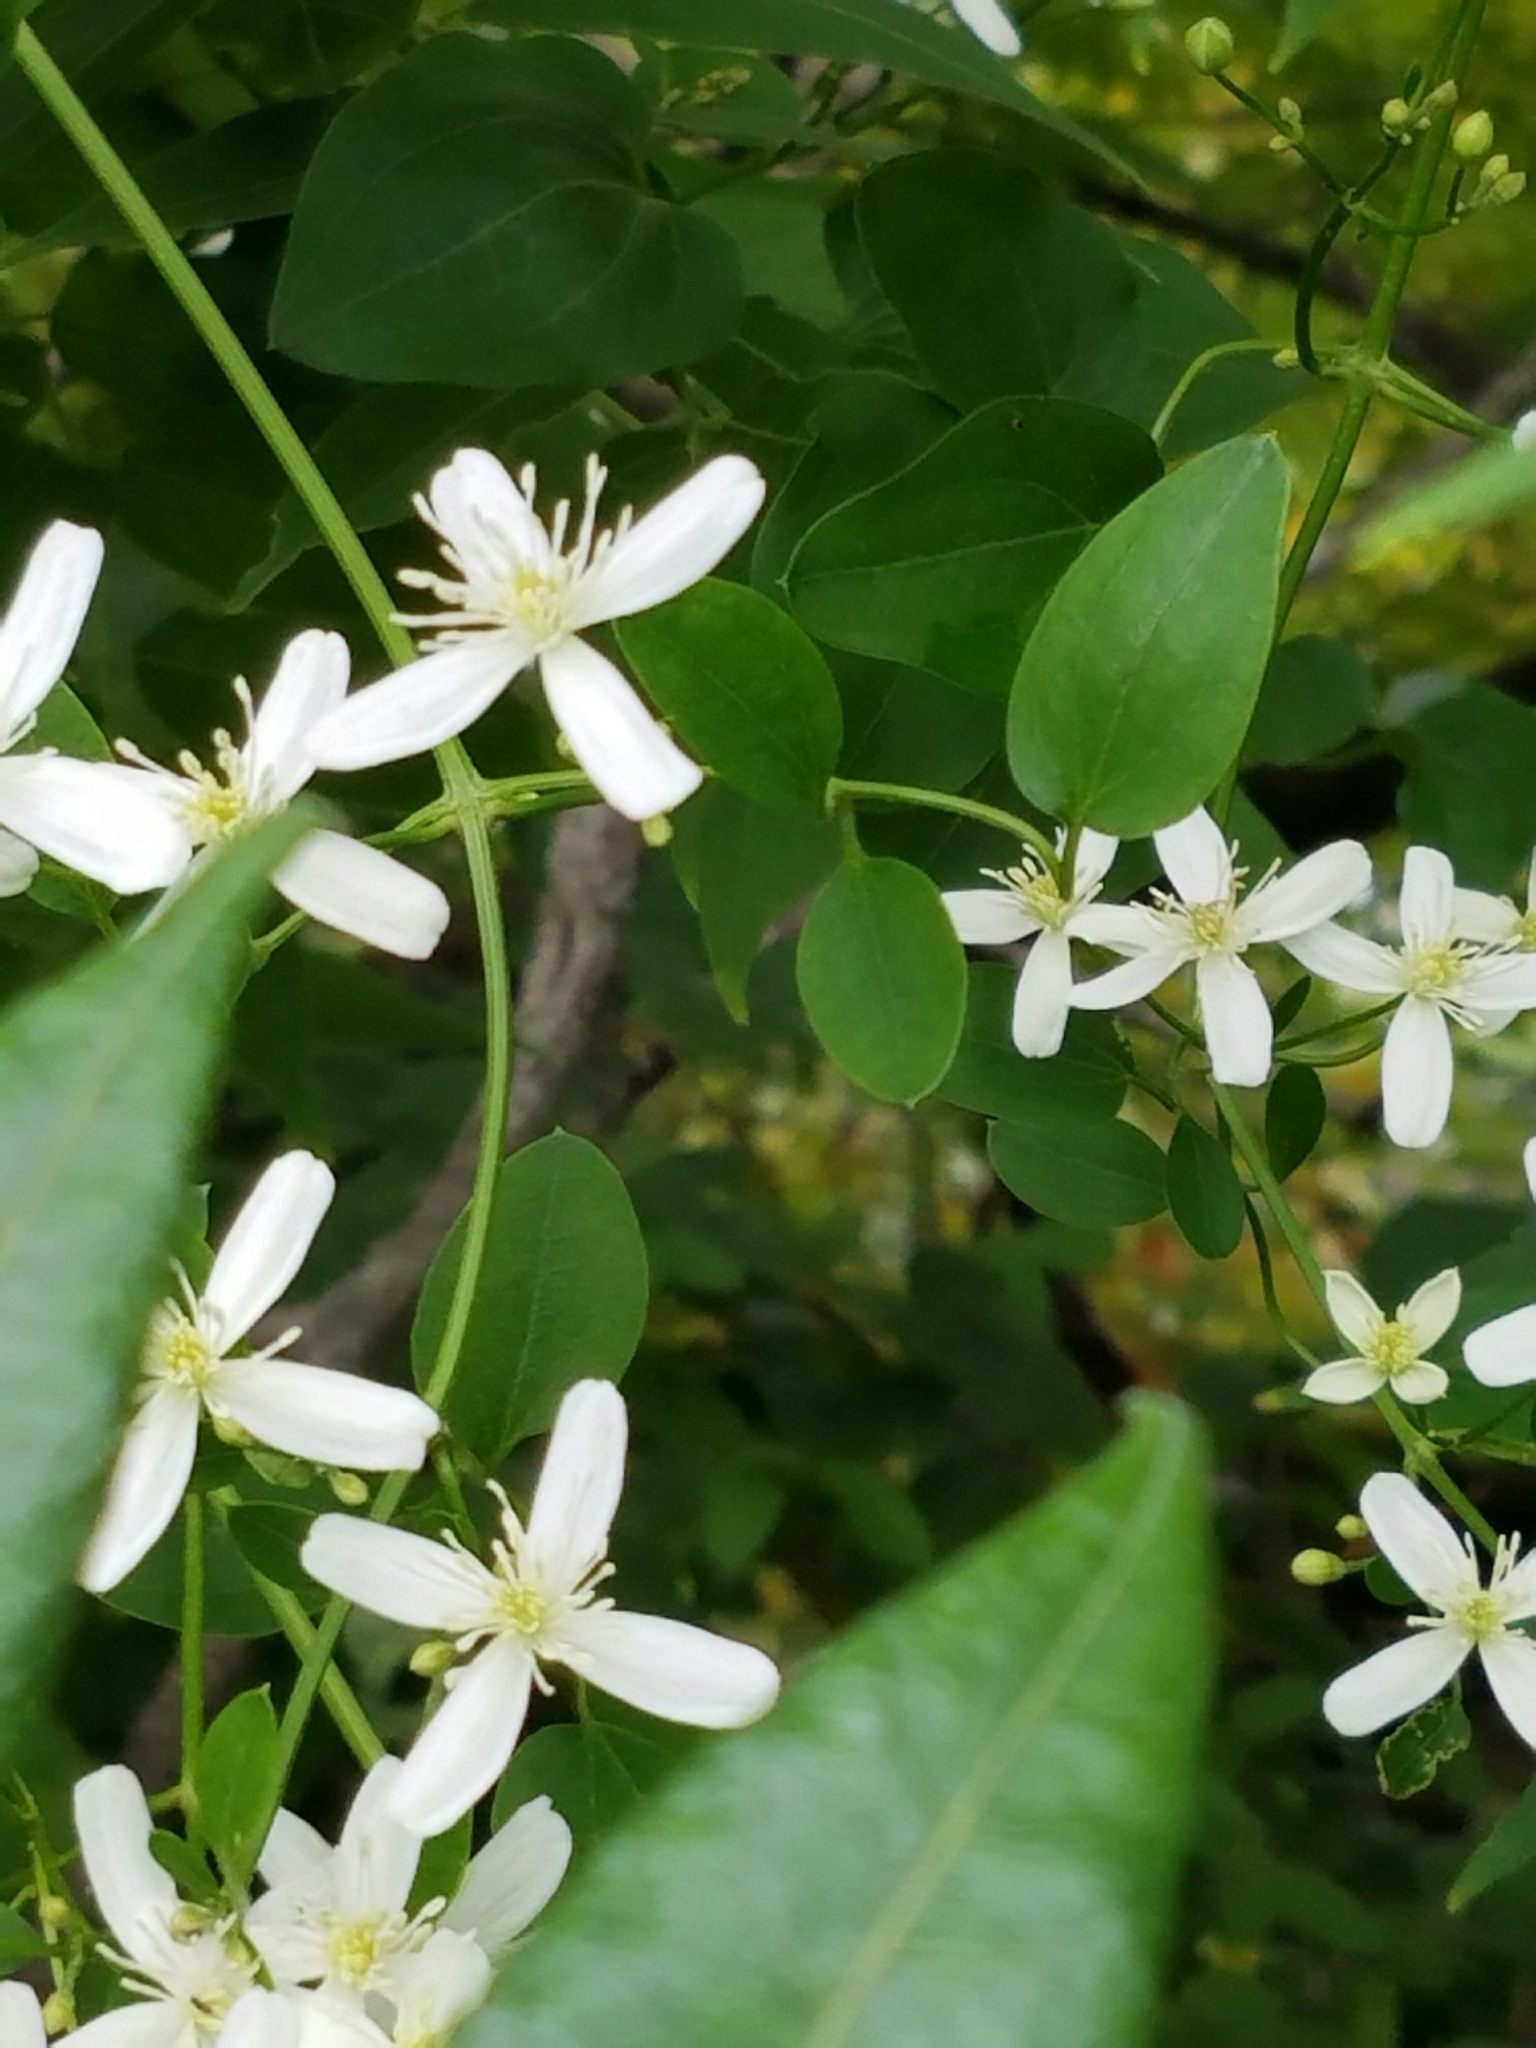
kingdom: Plantae
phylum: Tracheophyta
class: Magnoliopsida
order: Ranunculales
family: Ranunculaceae
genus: Clematis
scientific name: Clematis terniflora
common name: Sweet autumn clematis
